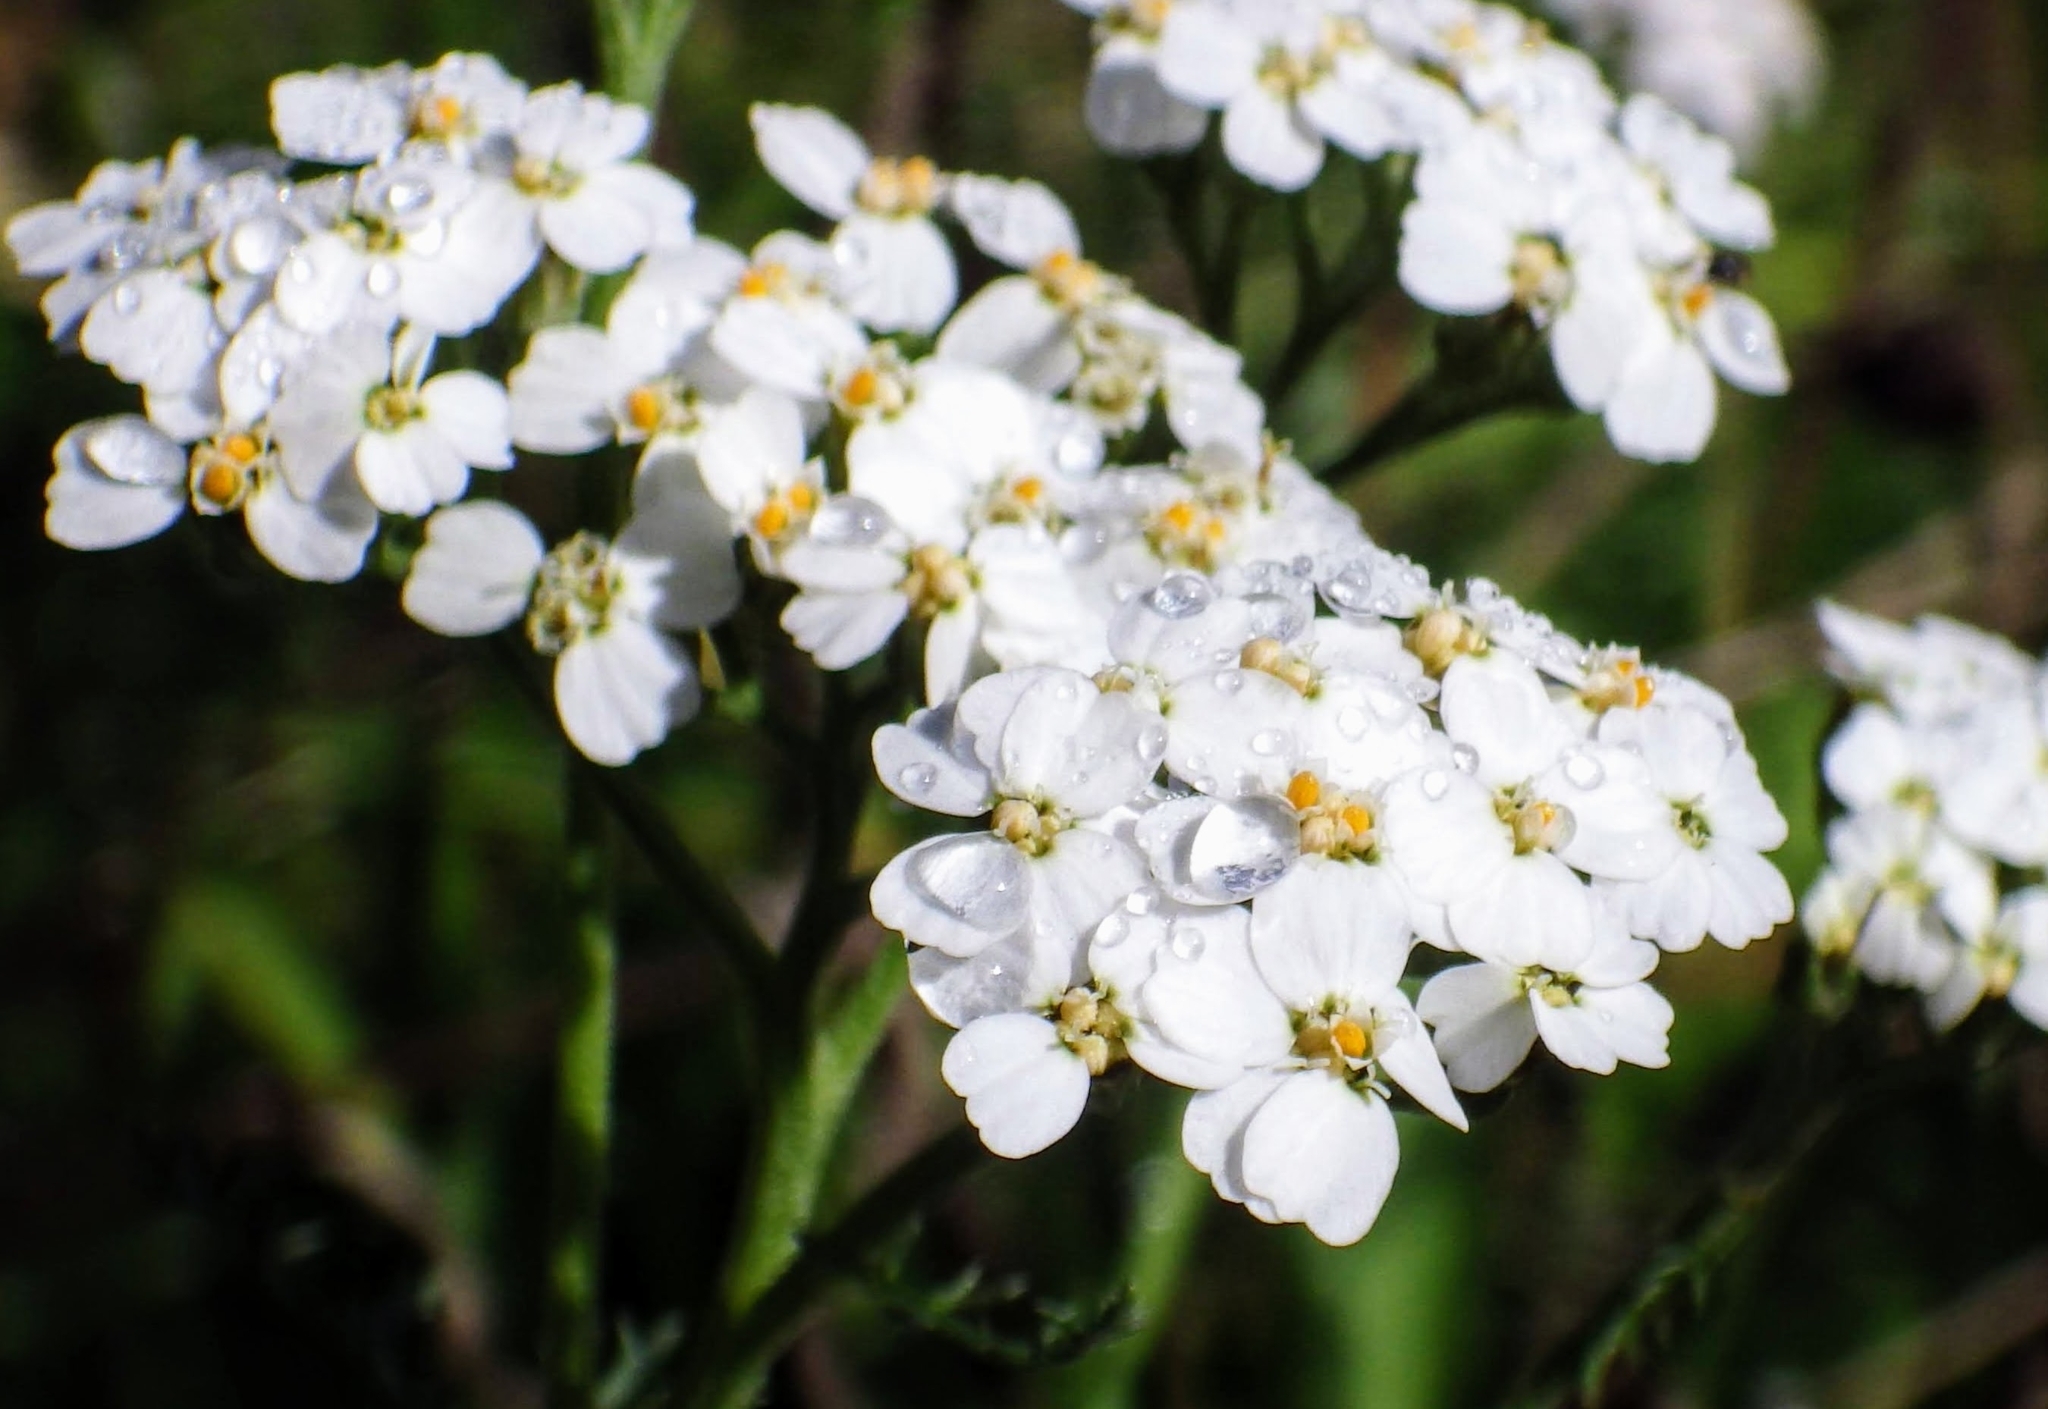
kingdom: Plantae
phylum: Tracheophyta
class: Magnoliopsida
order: Asterales
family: Asteraceae
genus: Achillea
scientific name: Achillea millefolium
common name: Yarrow
